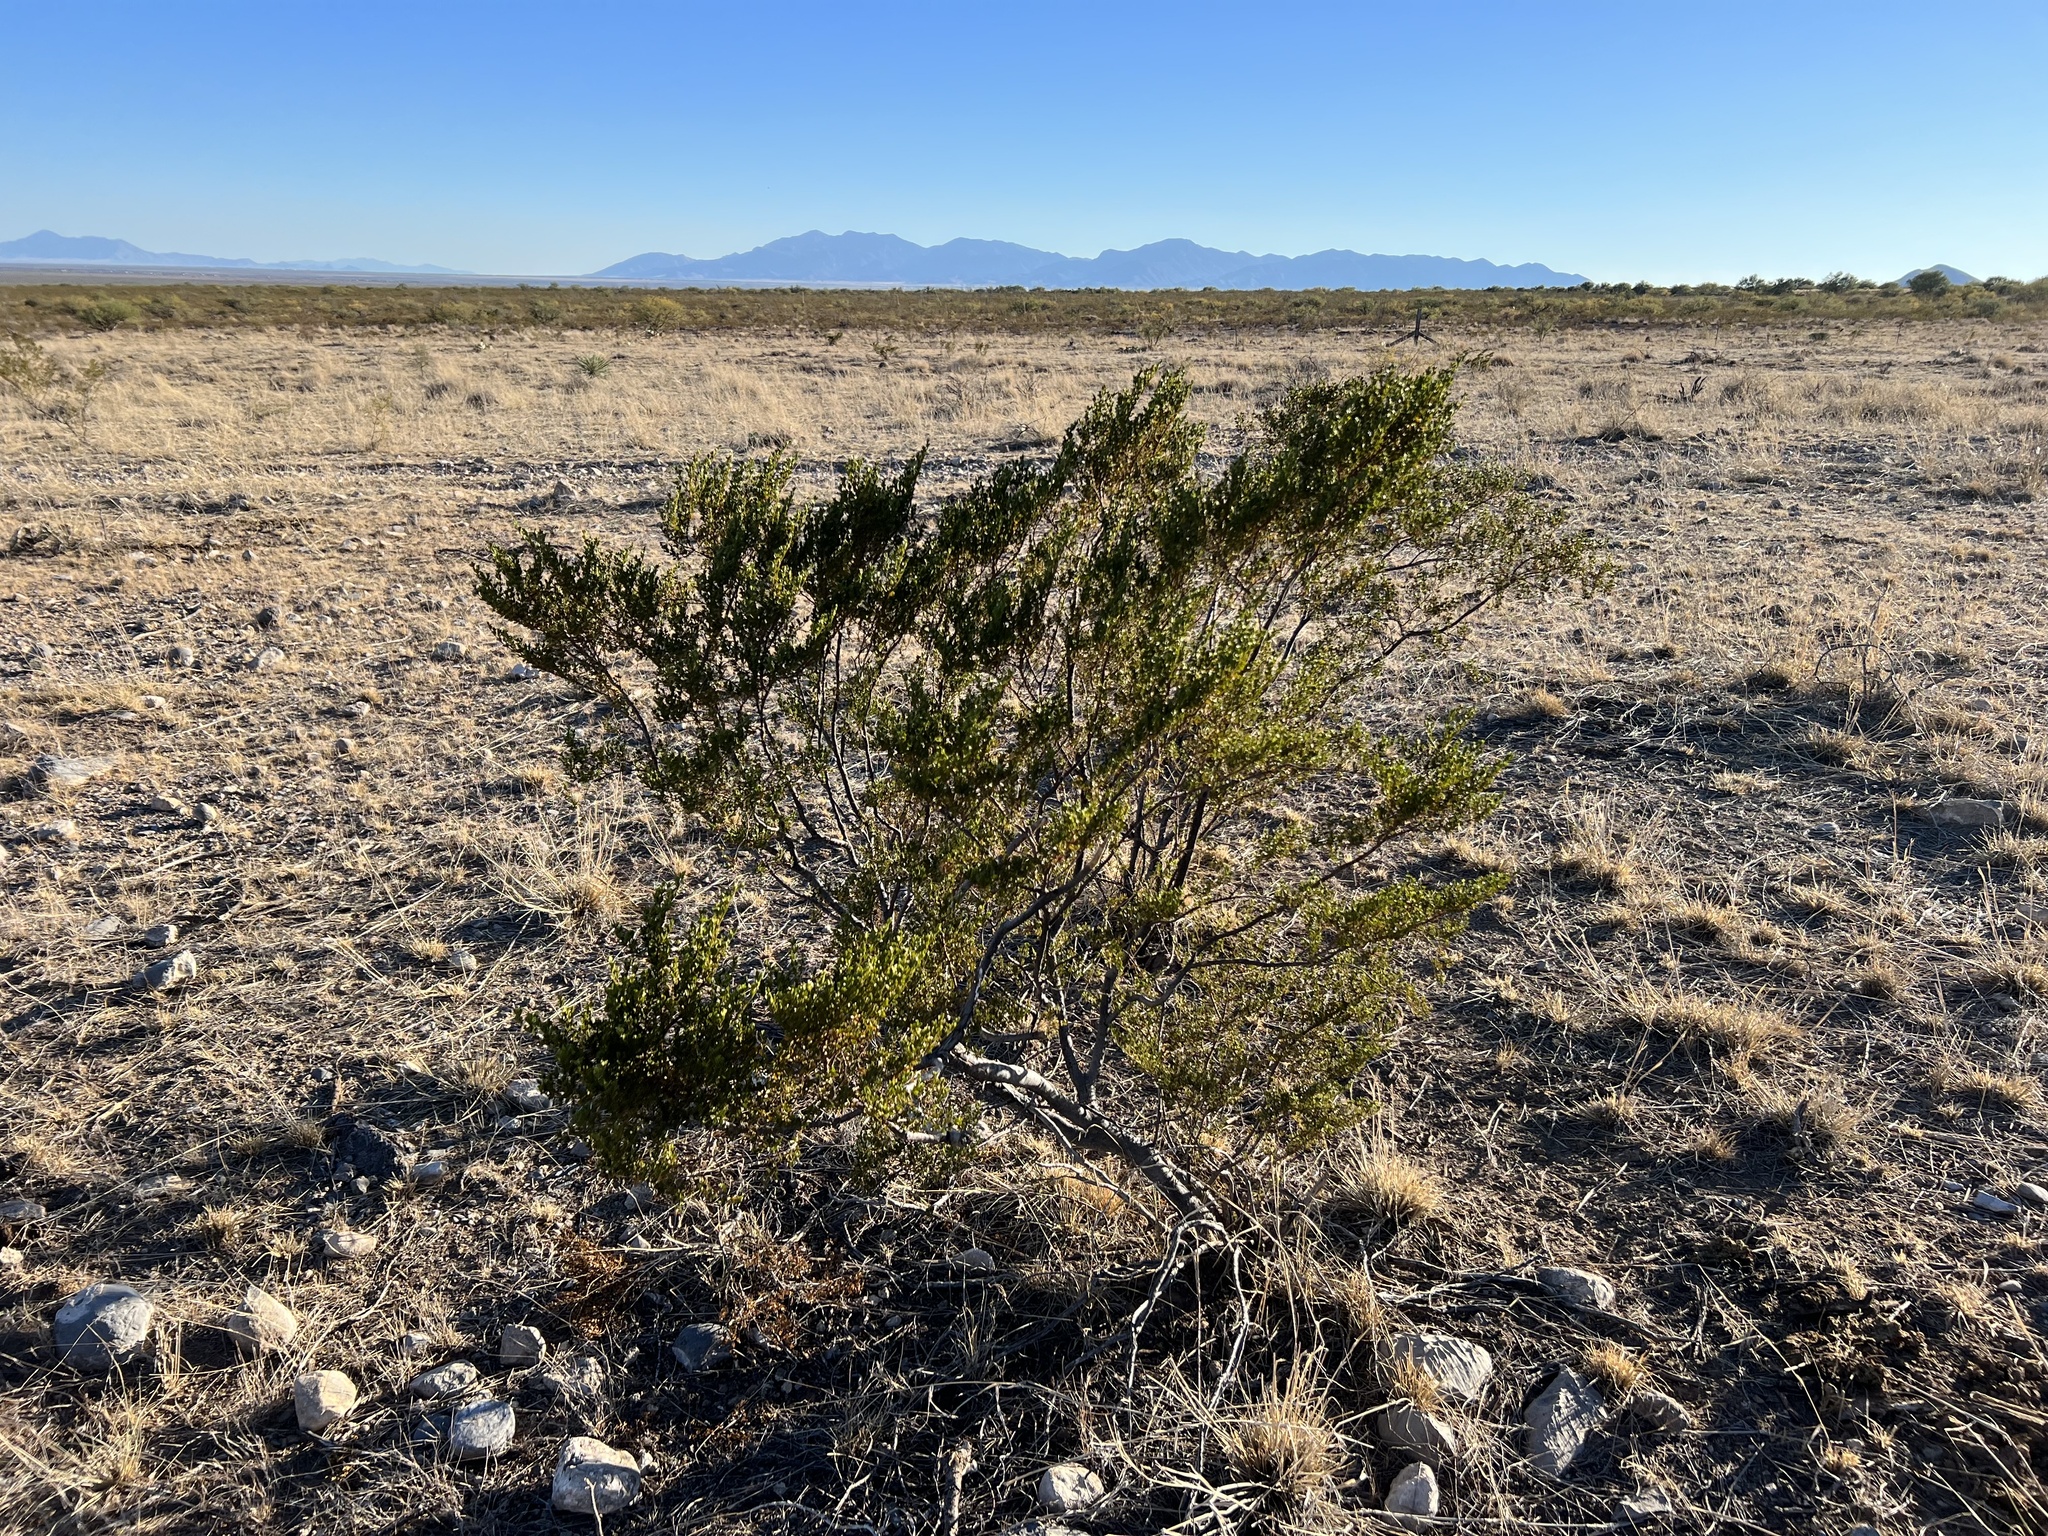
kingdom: Plantae
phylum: Tracheophyta
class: Magnoliopsida
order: Zygophyllales
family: Zygophyllaceae
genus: Larrea
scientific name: Larrea tridentata
